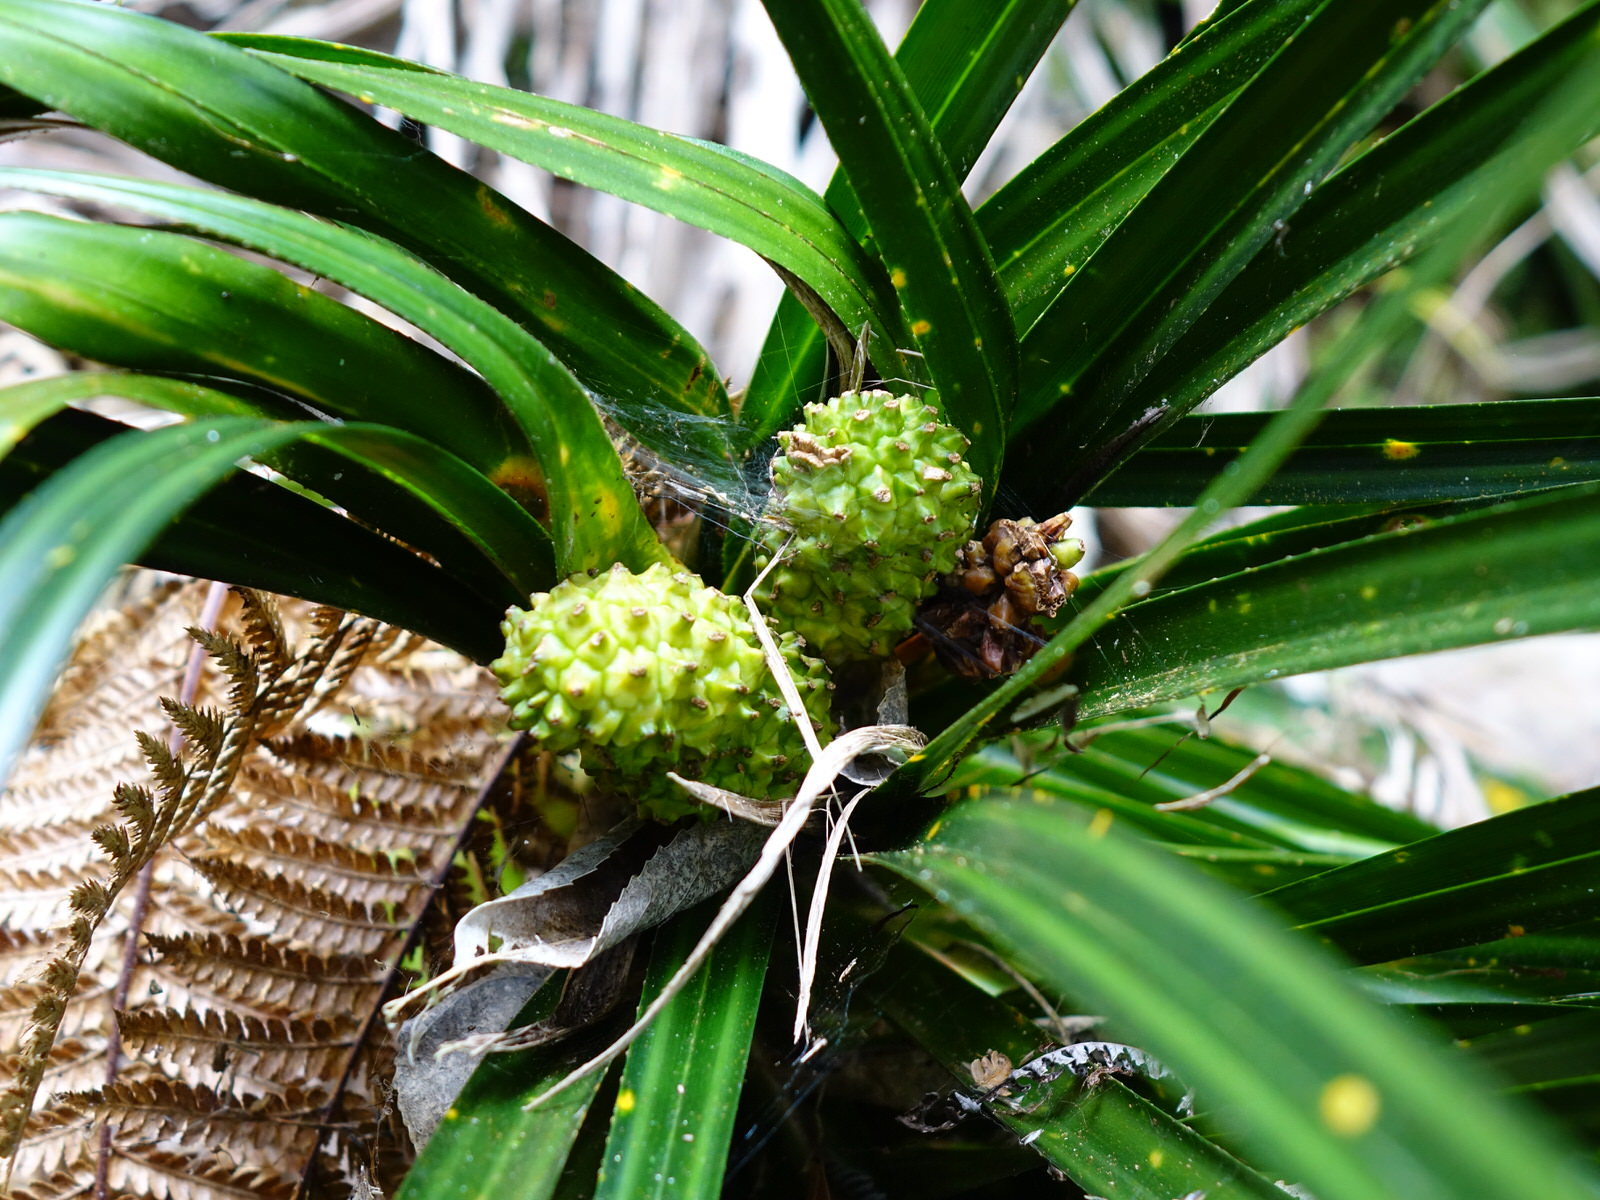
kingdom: Plantae
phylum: Tracheophyta
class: Liliopsida
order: Pandanales
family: Pandanaceae
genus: Freycinetia
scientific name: Freycinetia banksii
